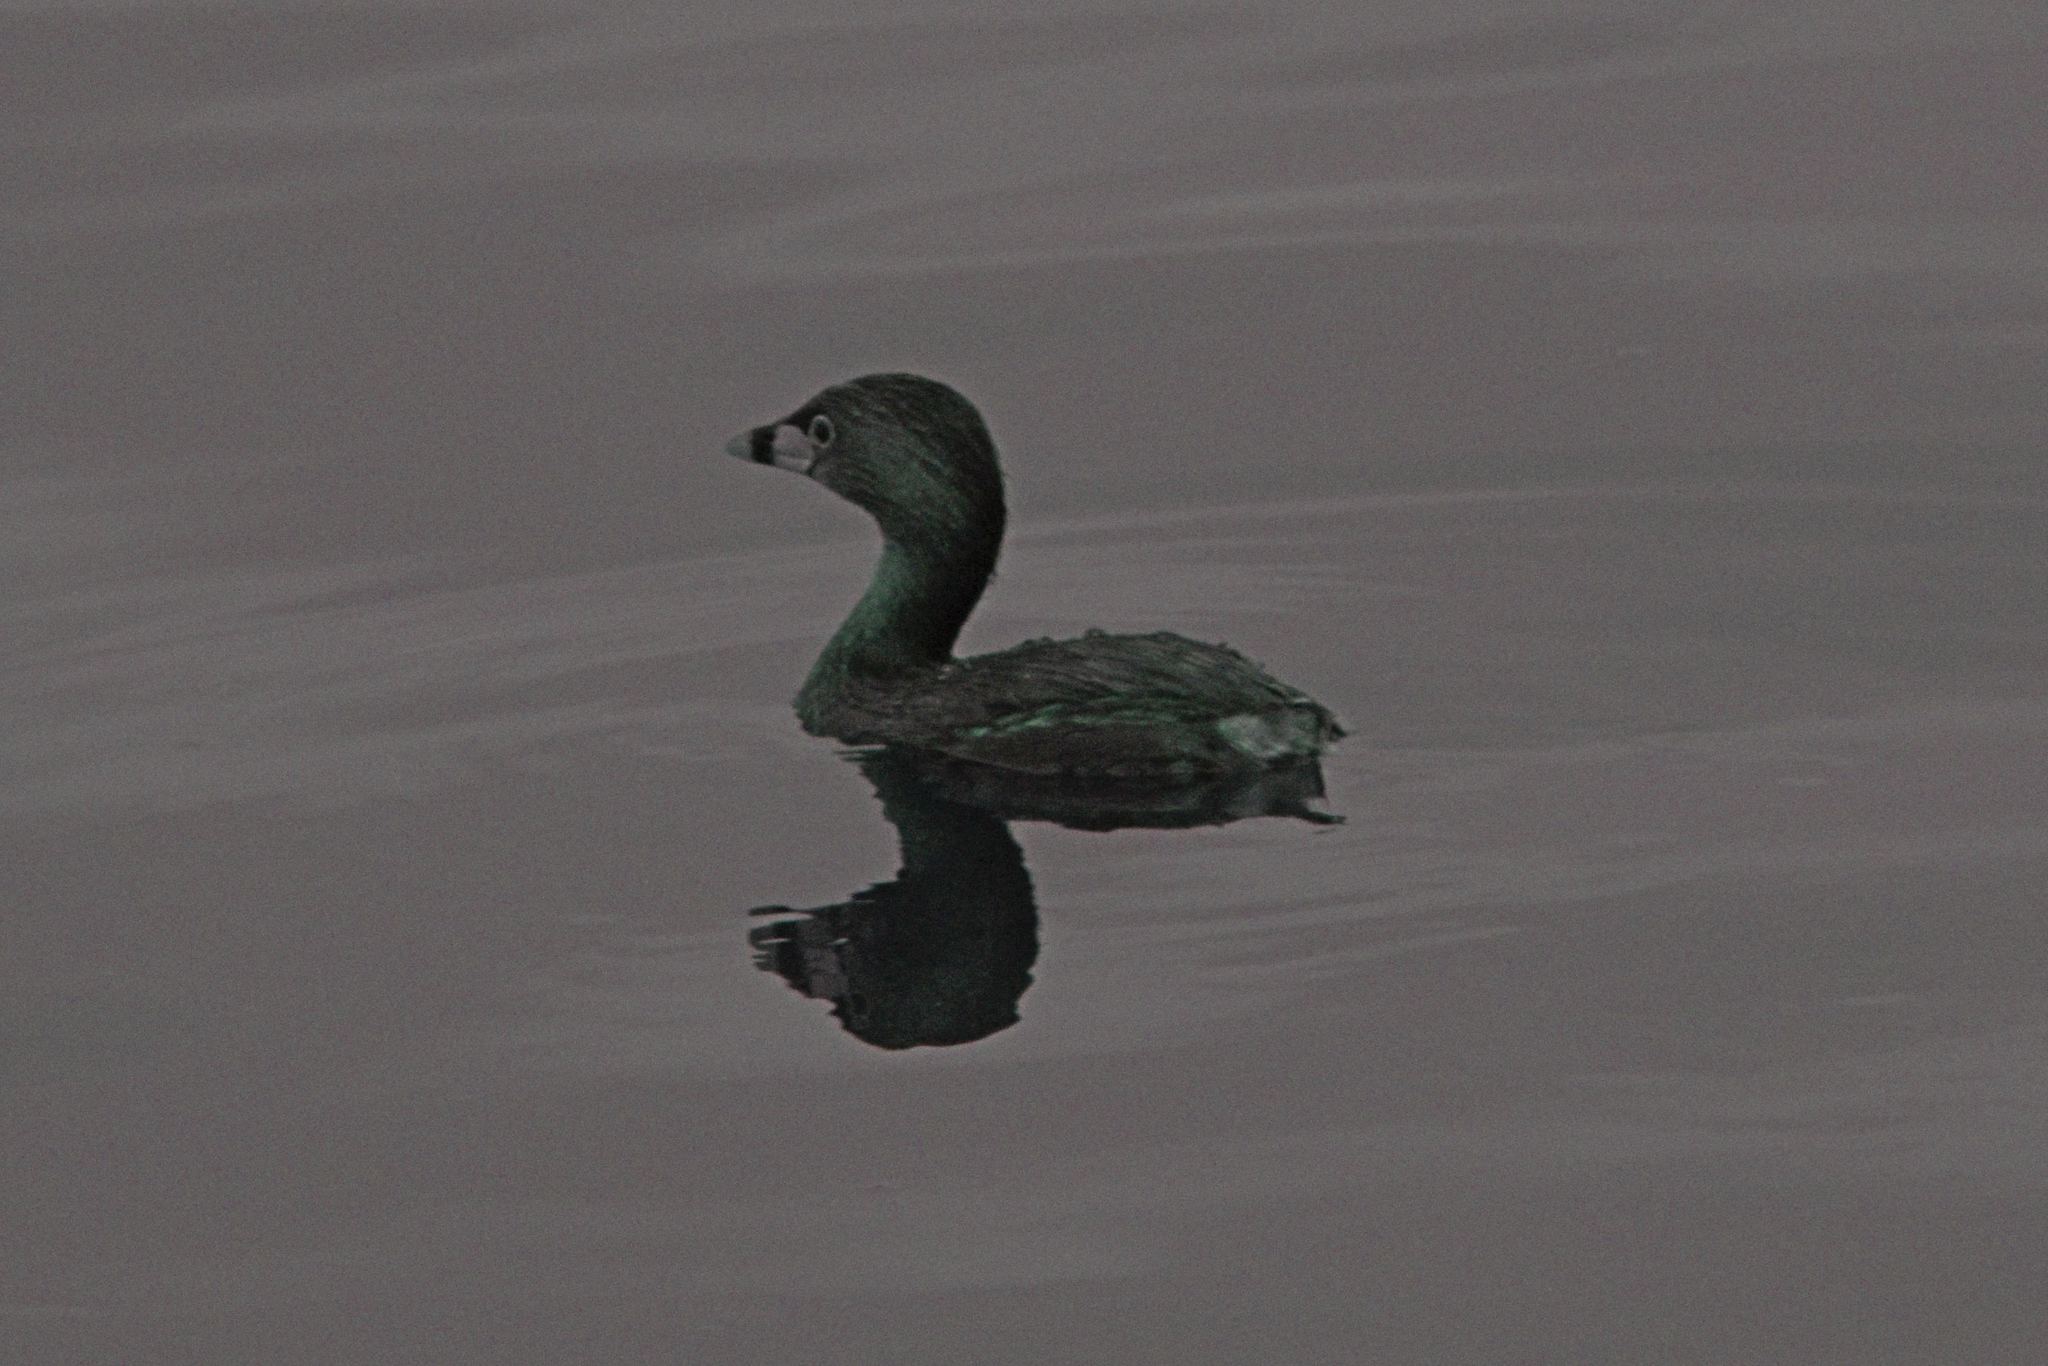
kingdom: Animalia
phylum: Chordata
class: Aves
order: Podicipediformes
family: Podicipedidae
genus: Podilymbus
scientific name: Podilymbus podiceps
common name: Pied-billed grebe
